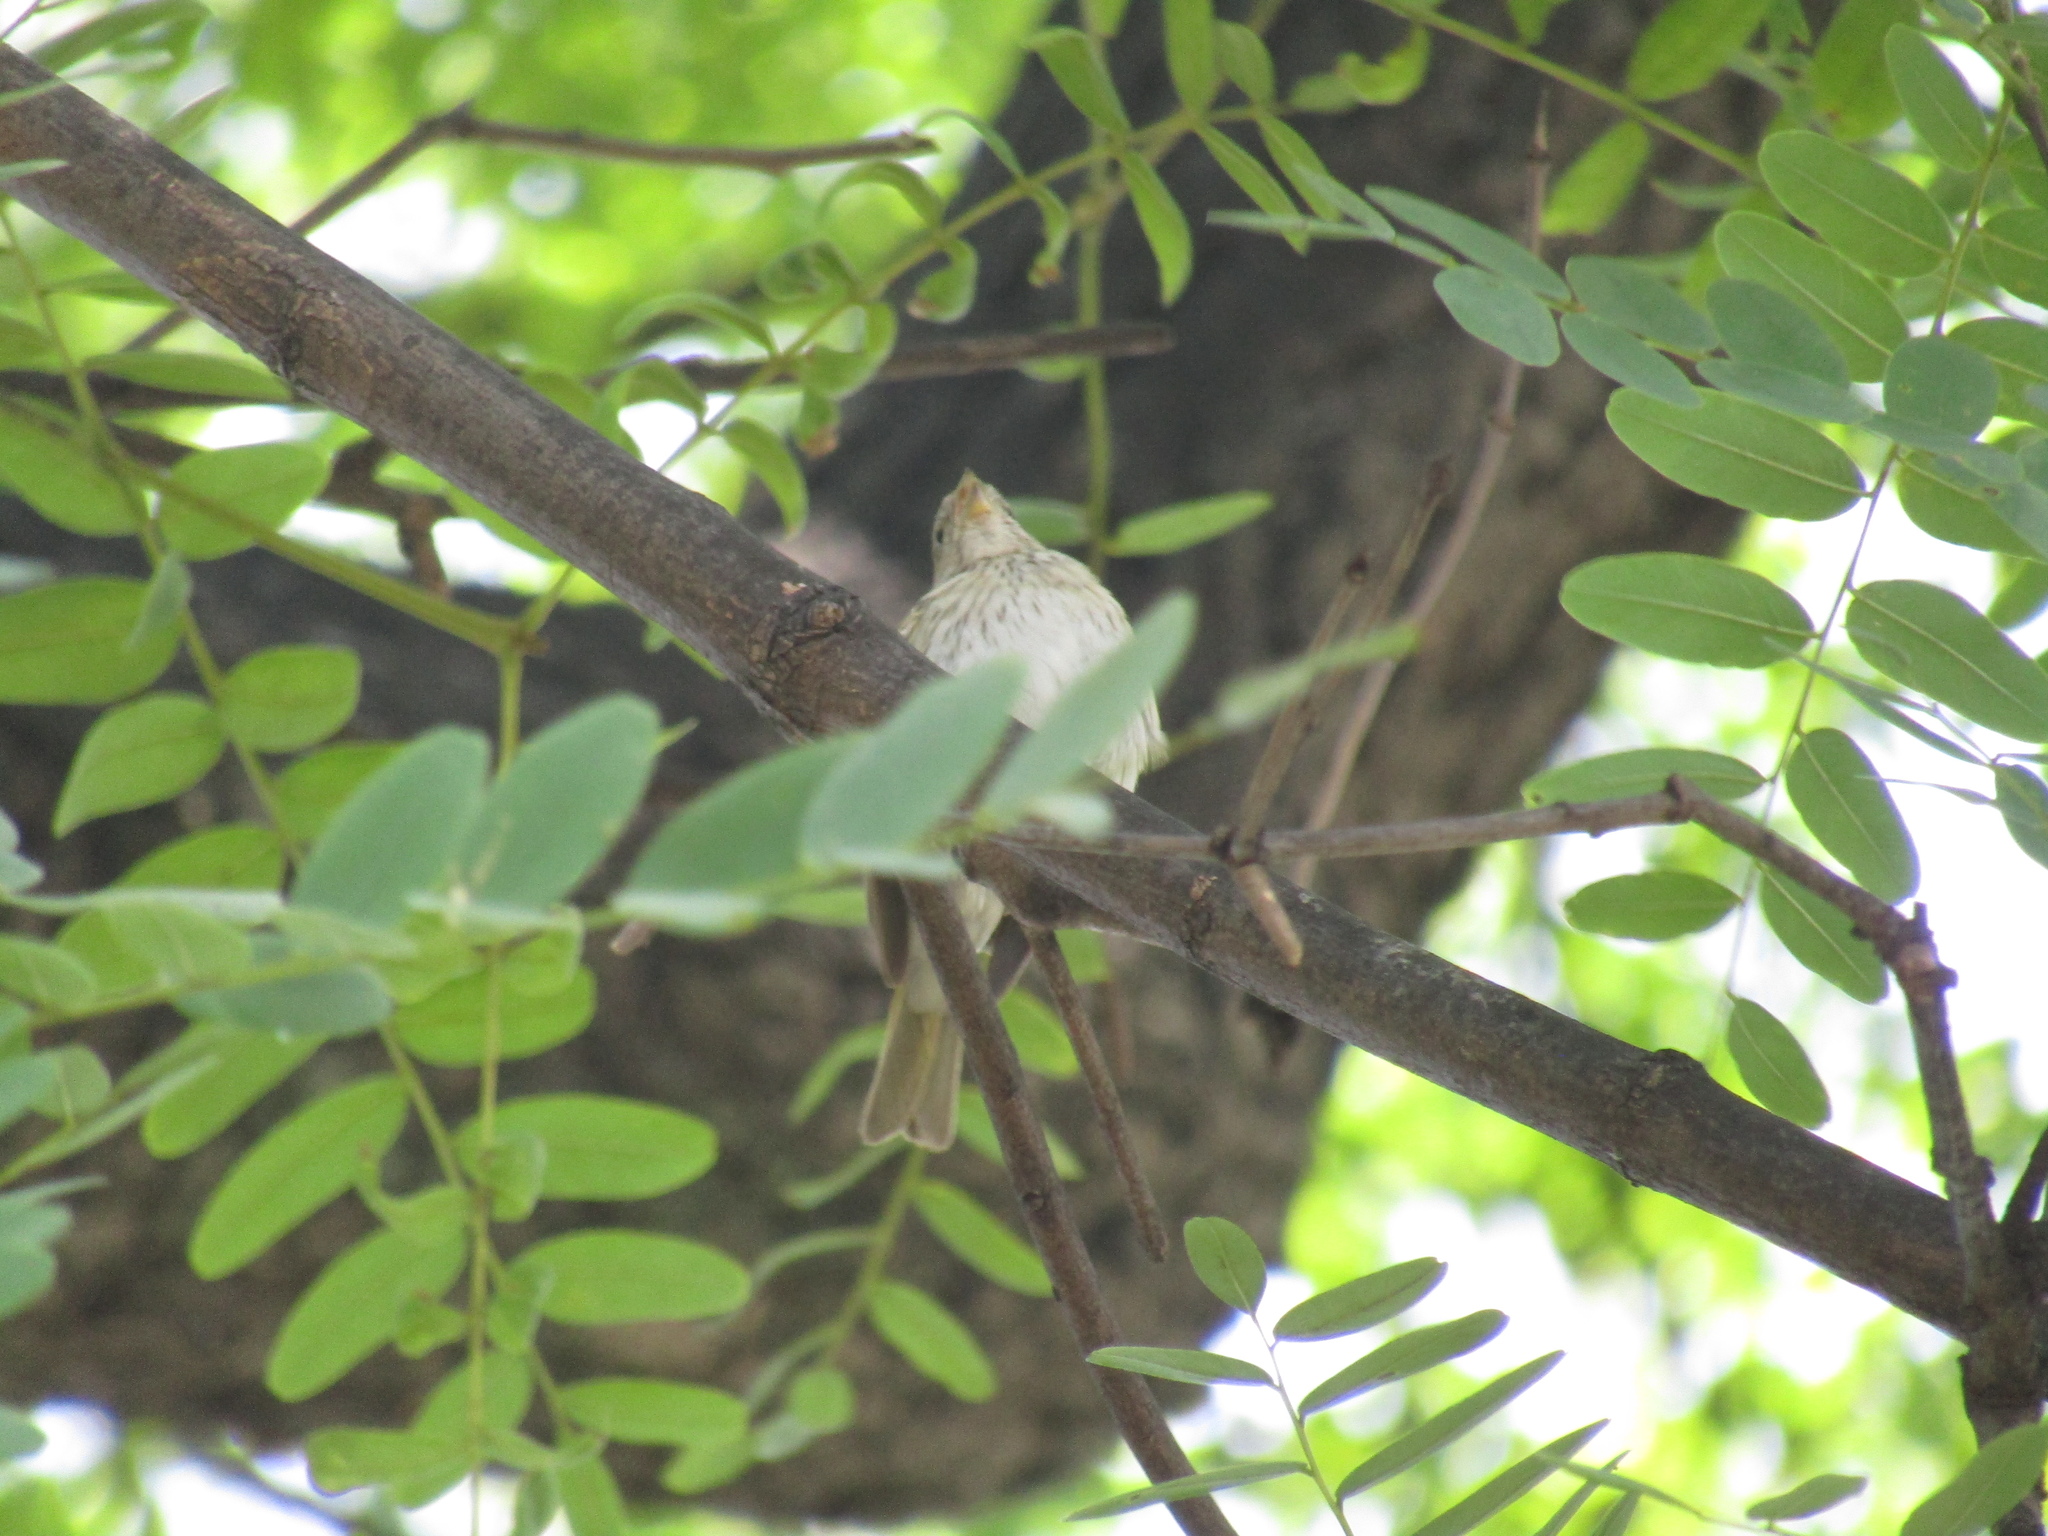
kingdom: Animalia
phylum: Chordata
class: Aves
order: Passeriformes
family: Thraupidae
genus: Sicalis
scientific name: Sicalis flaveola
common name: Saffron finch
